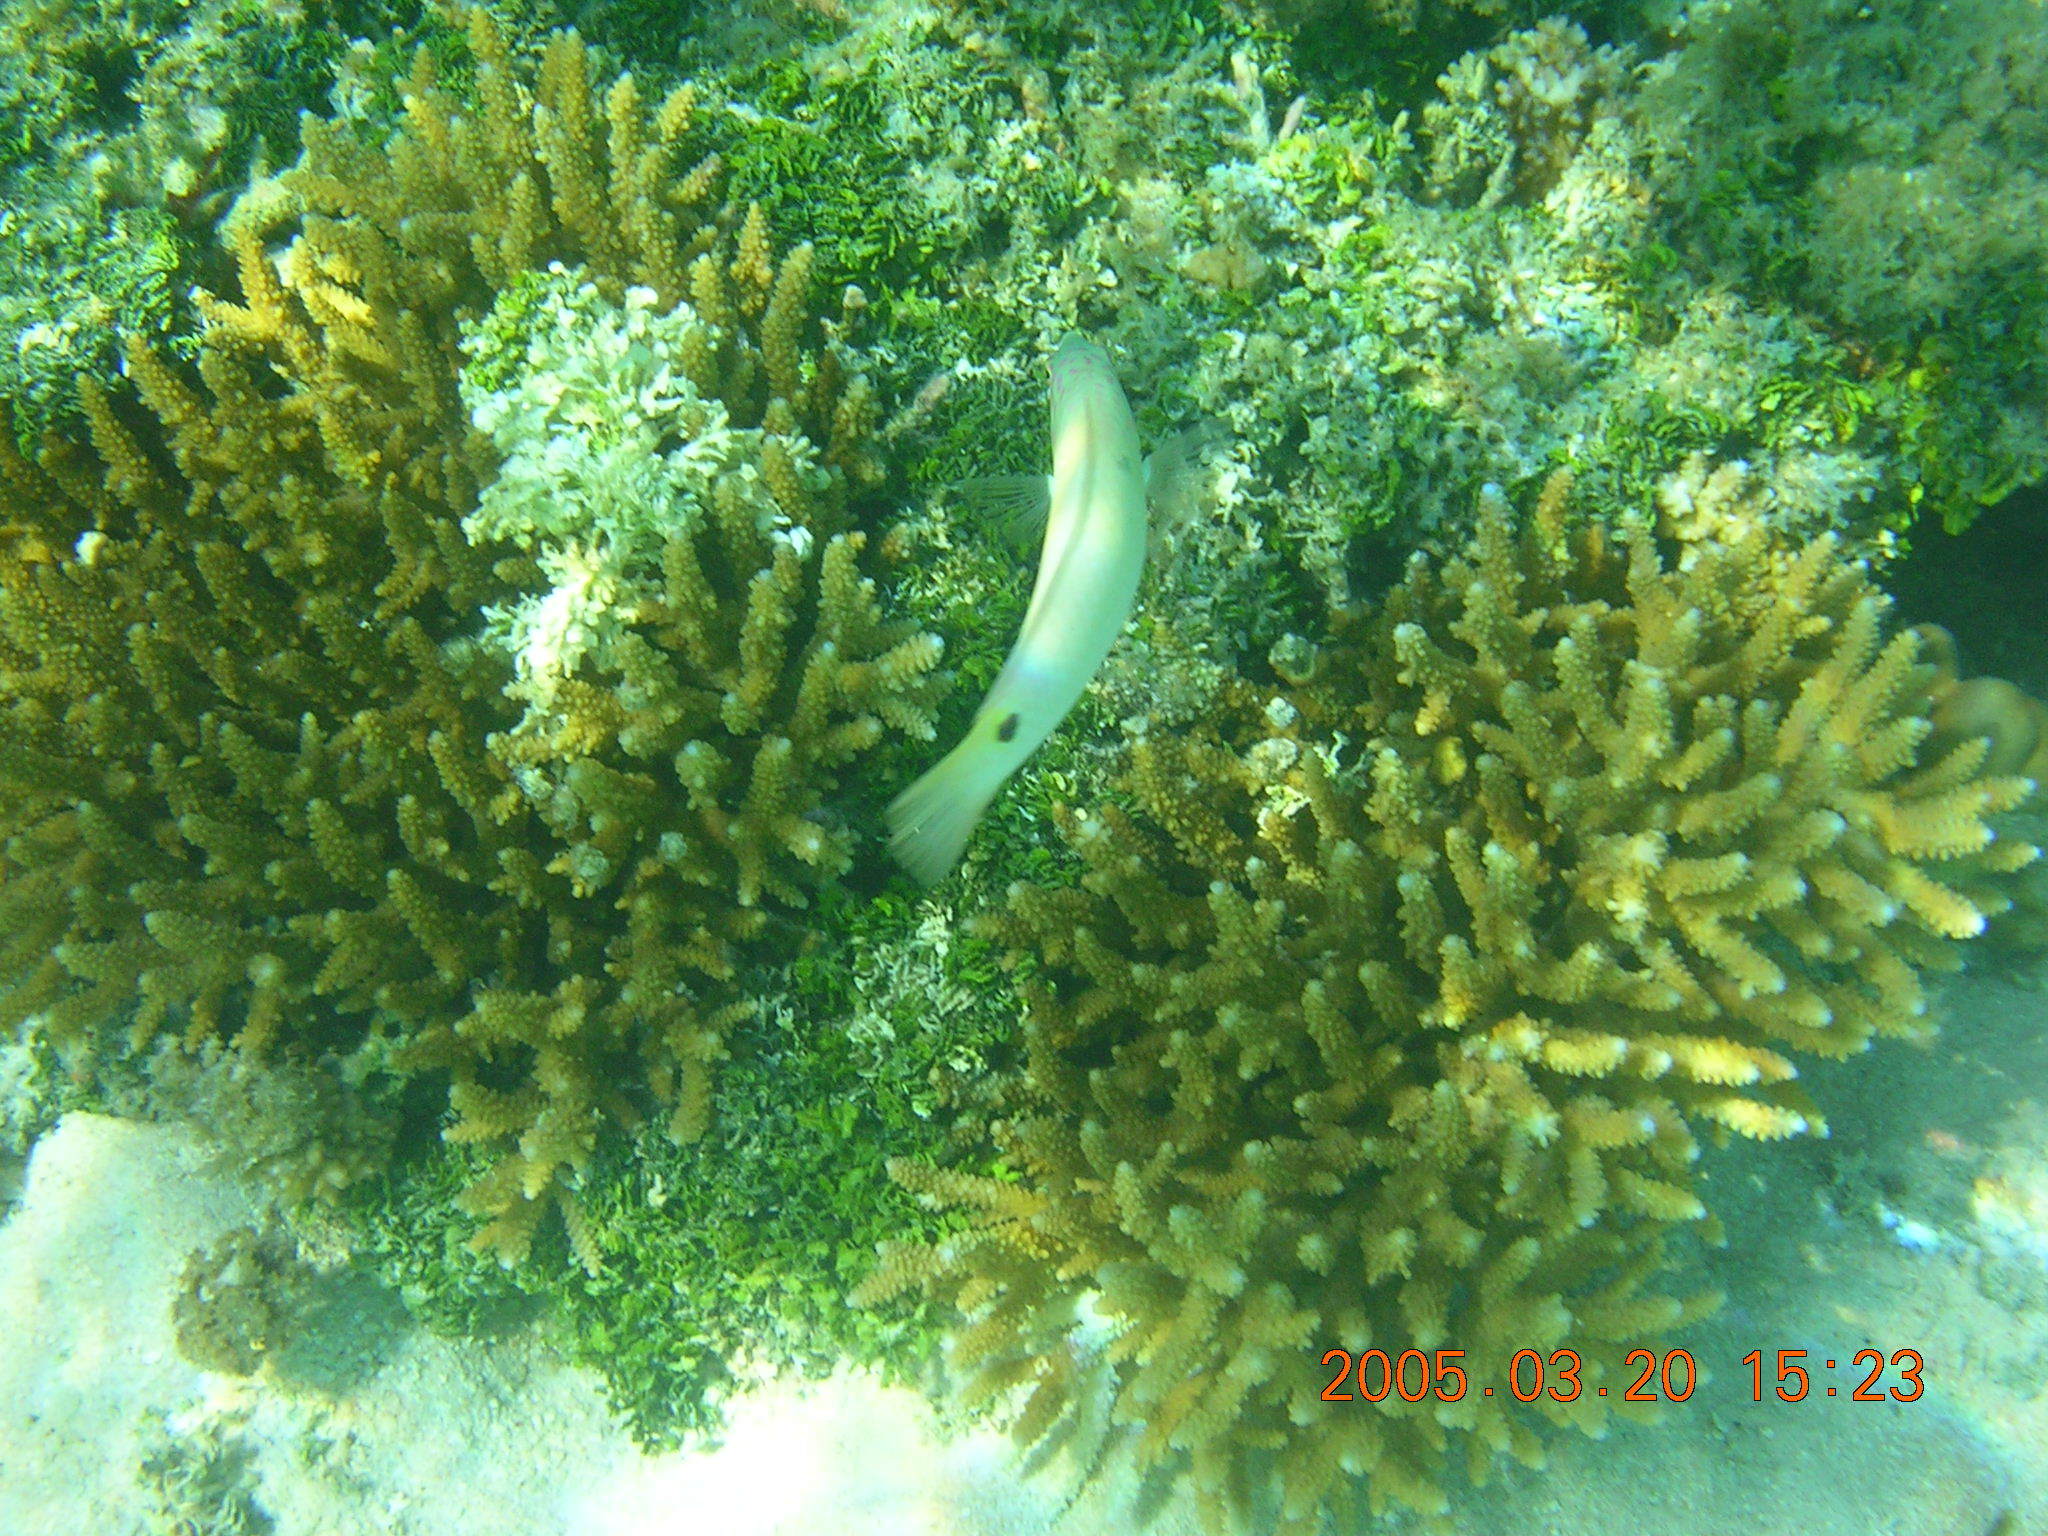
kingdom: Animalia
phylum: Chordata
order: Perciformes
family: Labridae
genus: Halichoeres
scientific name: Halichoeres trimaculatus
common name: Three-spot wrasse
